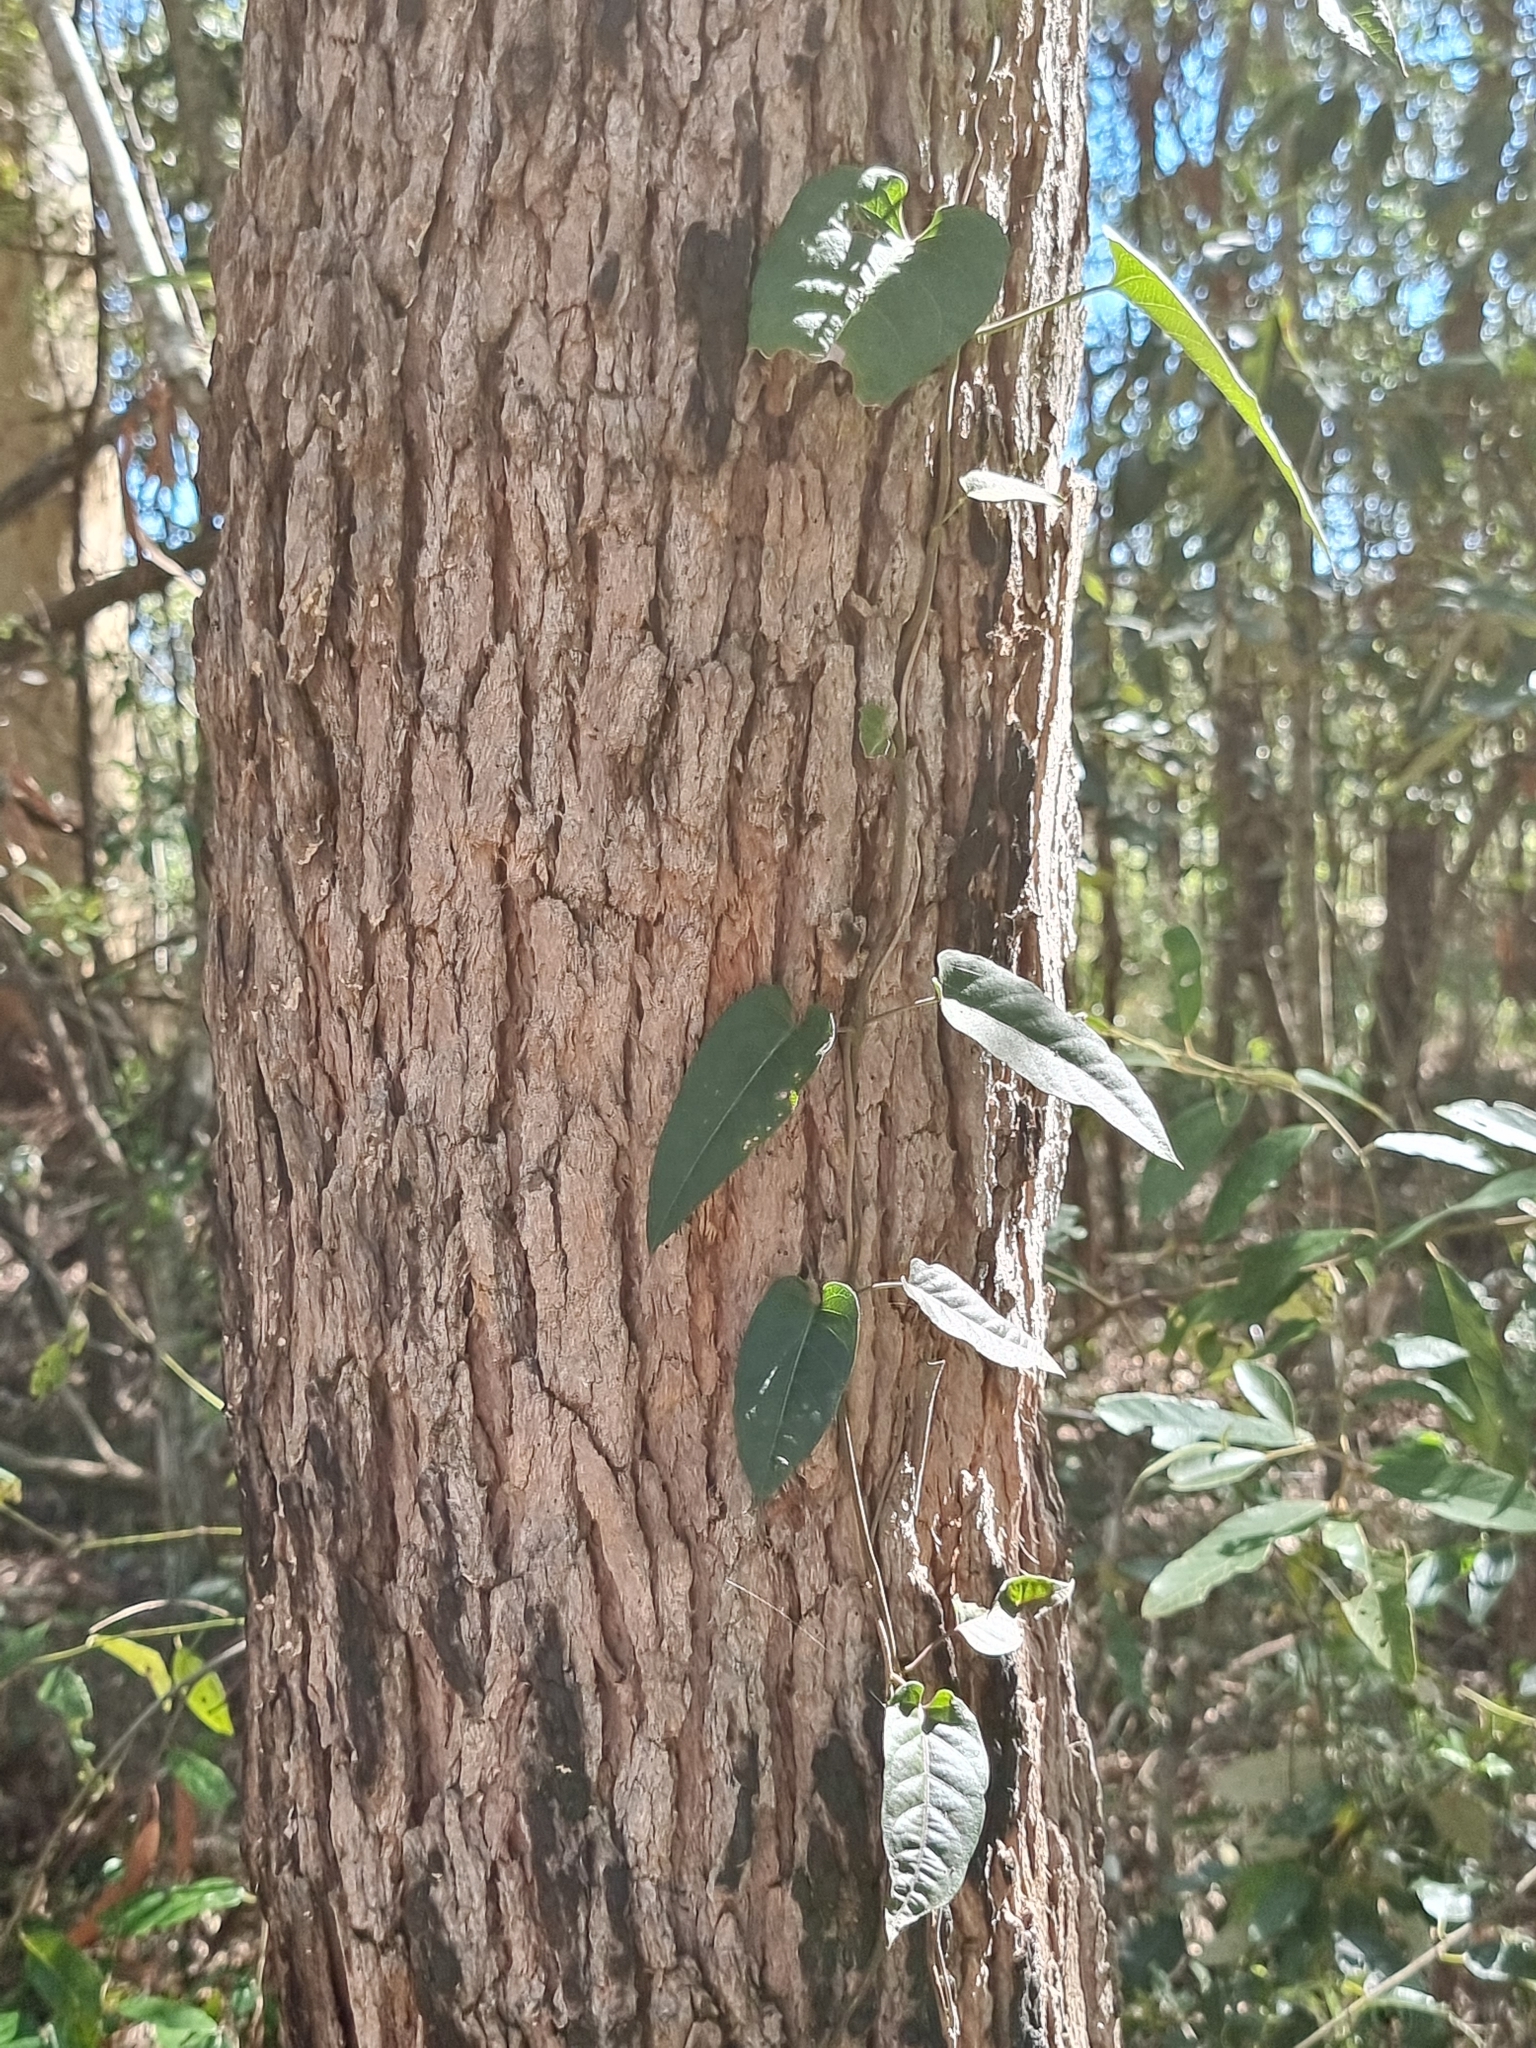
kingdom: Plantae
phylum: Tracheophyta
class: Magnoliopsida
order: Gentianales
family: Apocynaceae
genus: Parsonsia
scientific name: Parsonsia straminea
